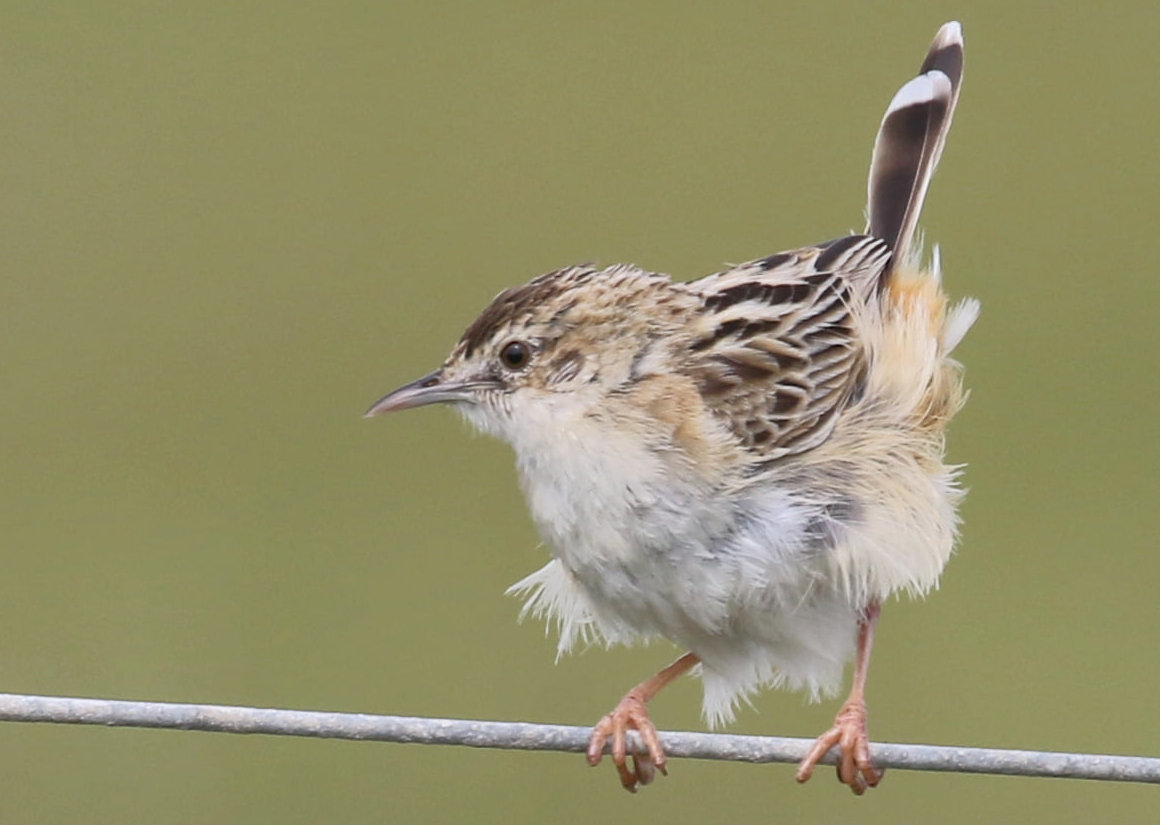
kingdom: Animalia
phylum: Chordata
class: Aves
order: Passeriformes
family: Cisticolidae
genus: Cisticola
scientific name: Cisticola juncidis
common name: Zitting cisticola
